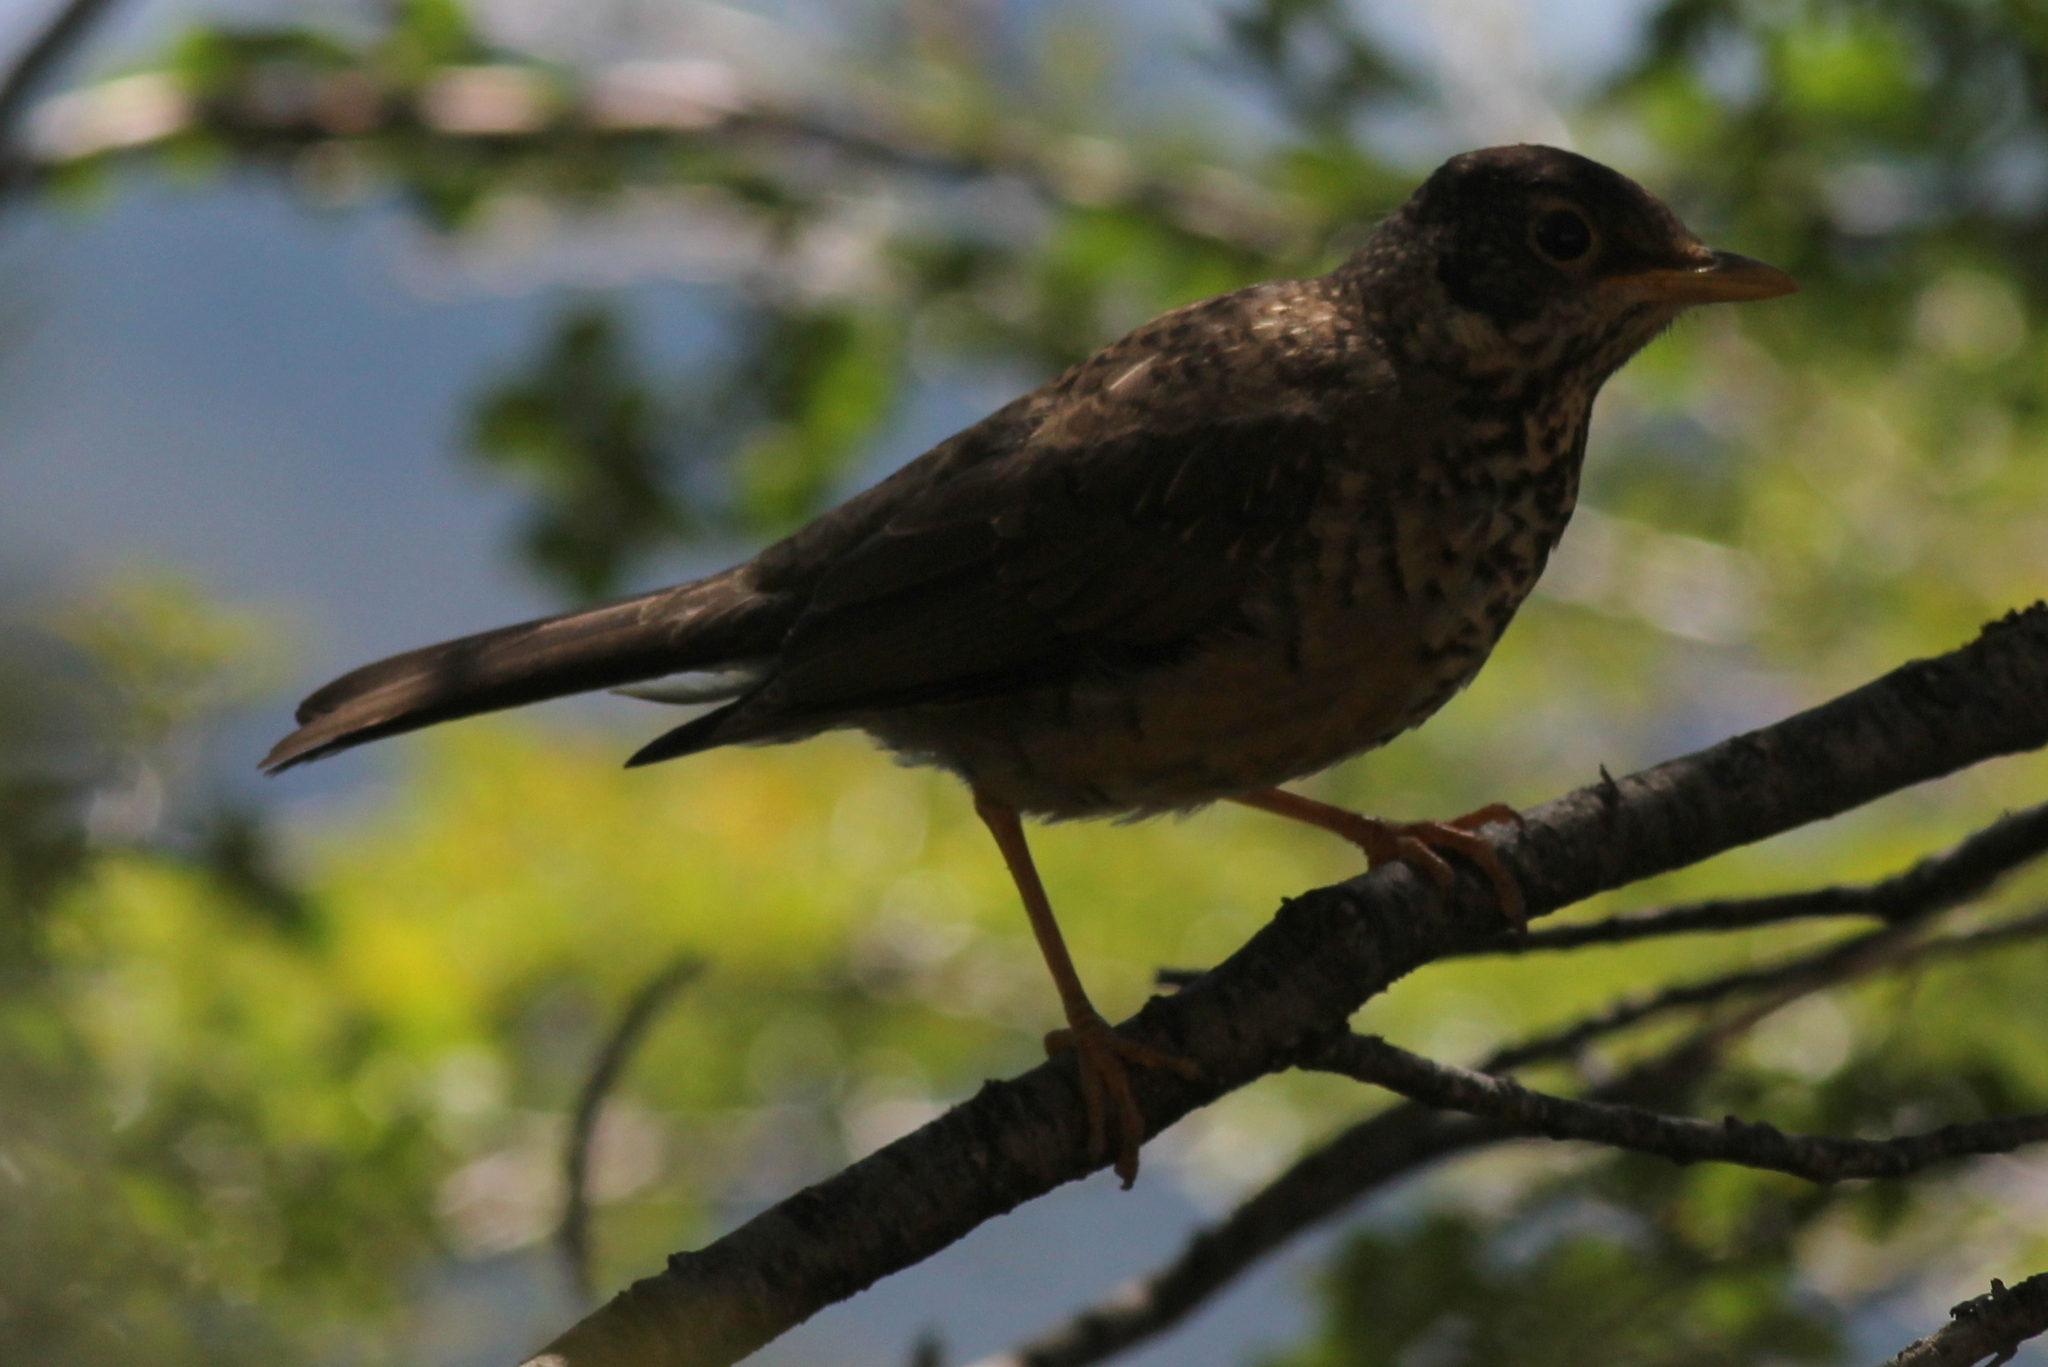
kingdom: Animalia
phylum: Chordata
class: Aves
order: Passeriformes
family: Turdidae
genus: Turdus
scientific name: Turdus falcklandii
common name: Austral thrush
